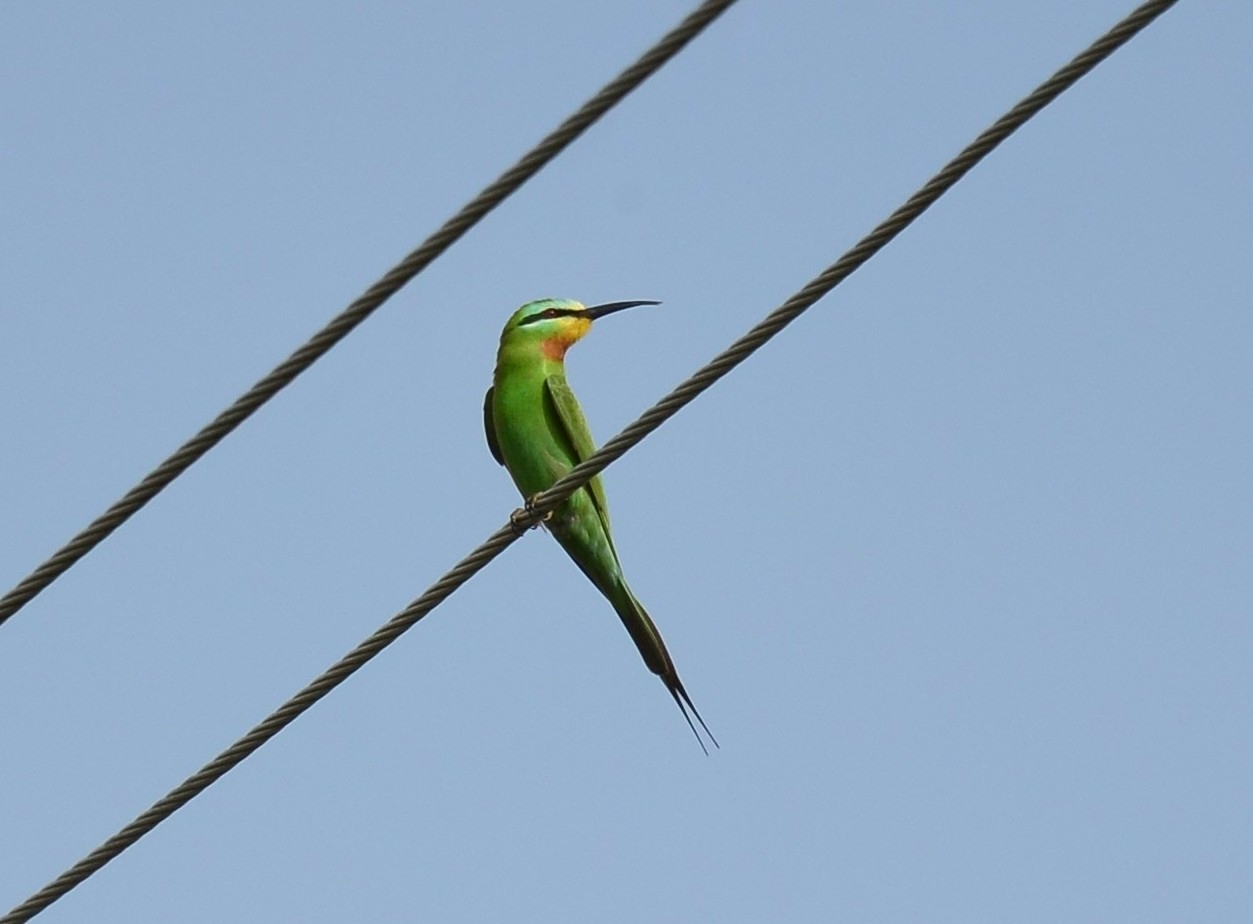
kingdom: Animalia
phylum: Chordata
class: Aves
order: Coraciiformes
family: Meropidae
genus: Merops
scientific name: Merops persicus
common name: Blue-cheeked bee-eater
